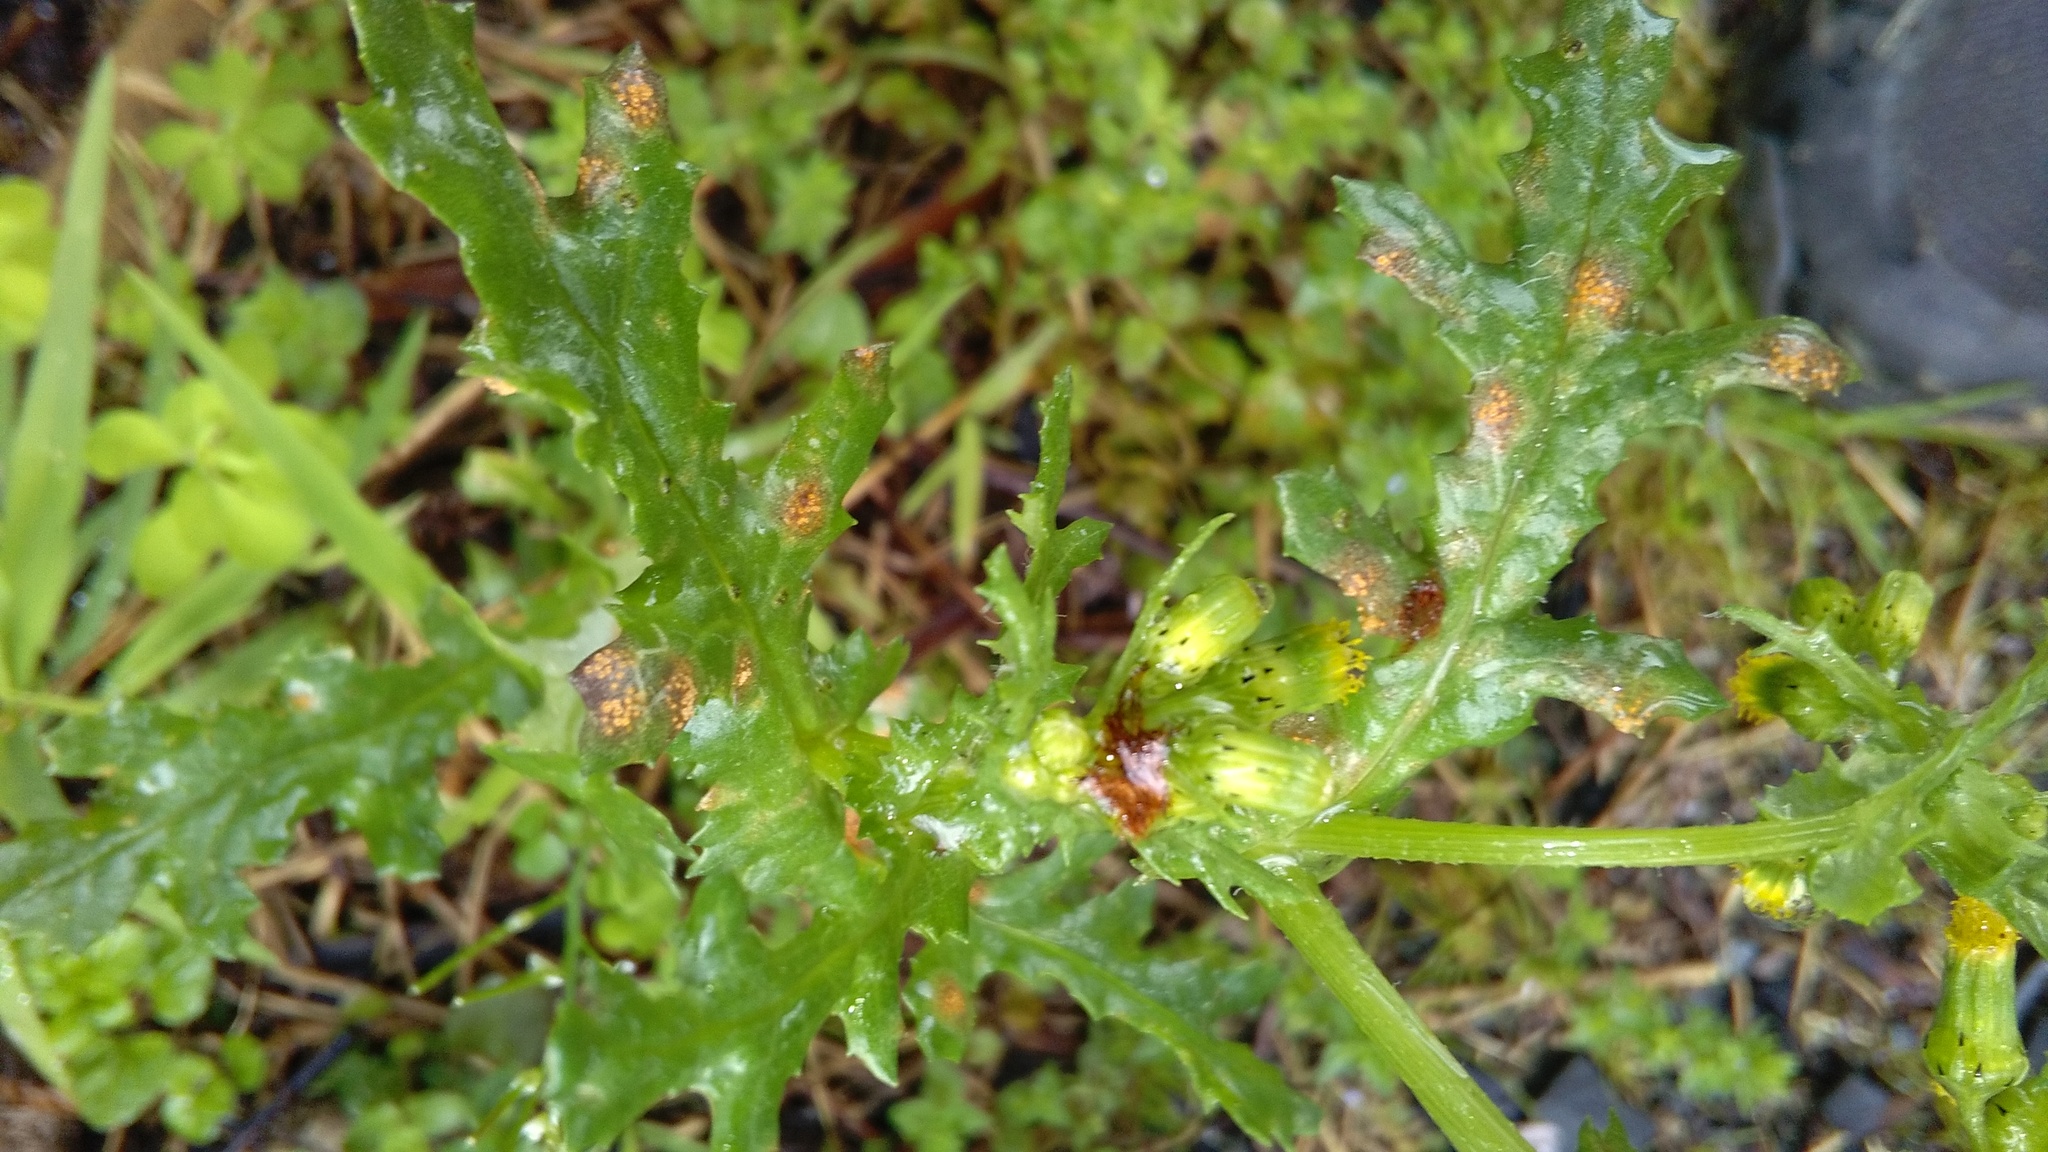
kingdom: Fungi
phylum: Basidiomycota
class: Pucciniomycetes
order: Pucciniales
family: Pucciniaceae
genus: Puccinia
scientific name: Puccinia lagenophorae
